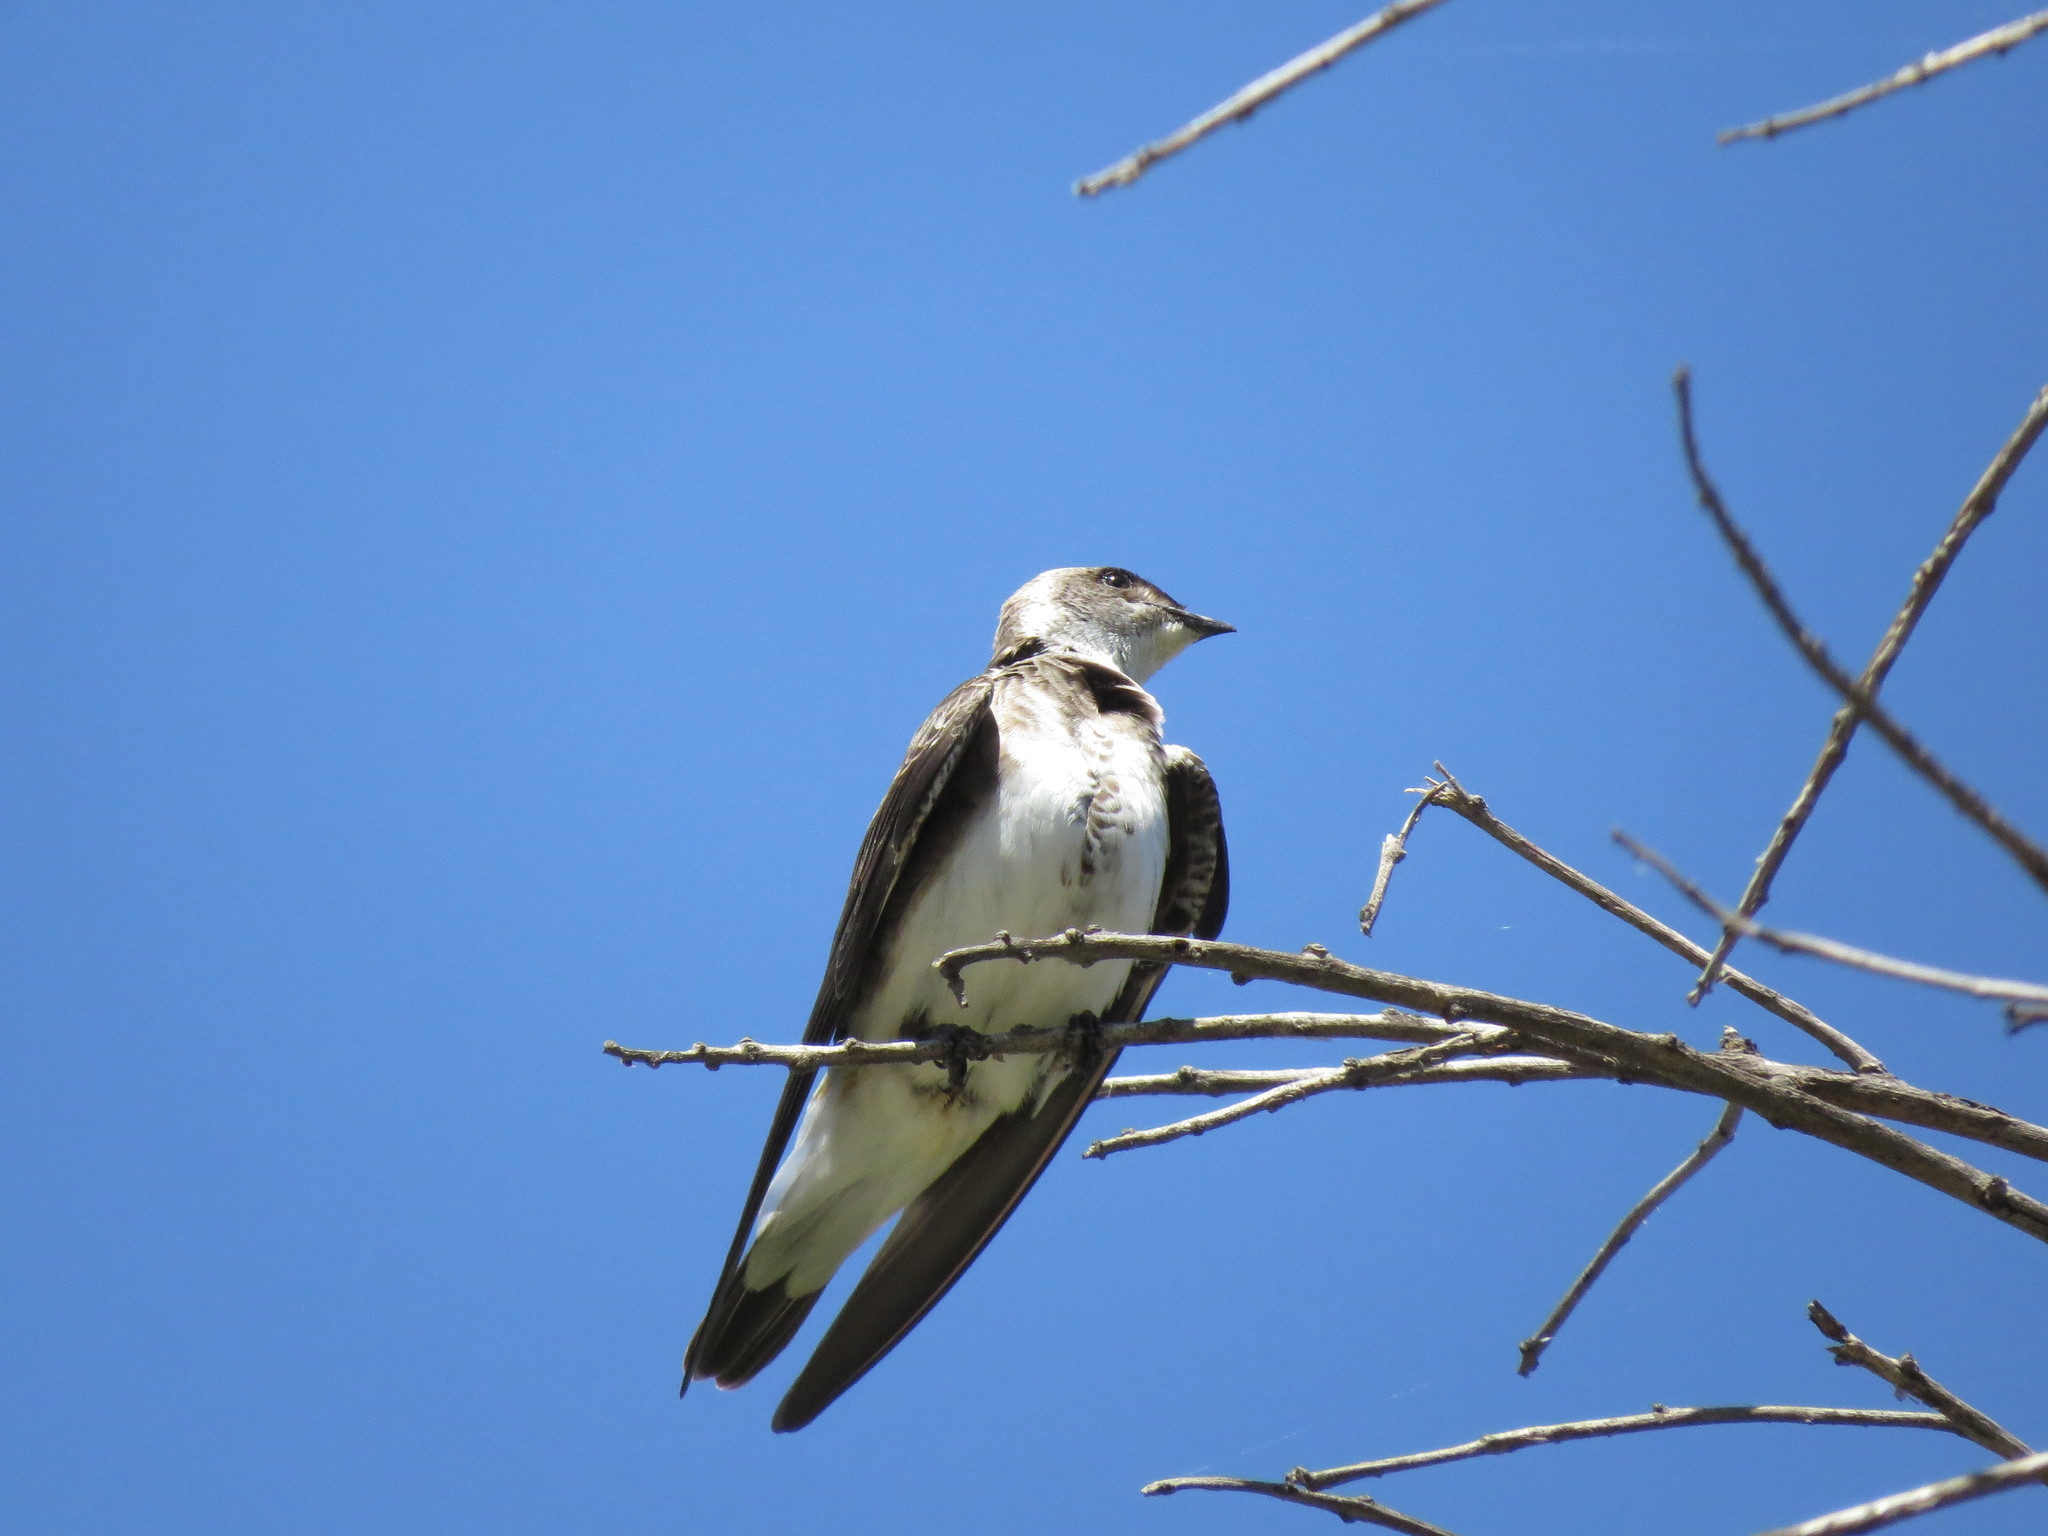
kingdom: Animalia
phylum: Chordata
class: Aves
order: Passeriformes
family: Hirundinidae
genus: Progne
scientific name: Progne tapera
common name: Brown-chested martin
